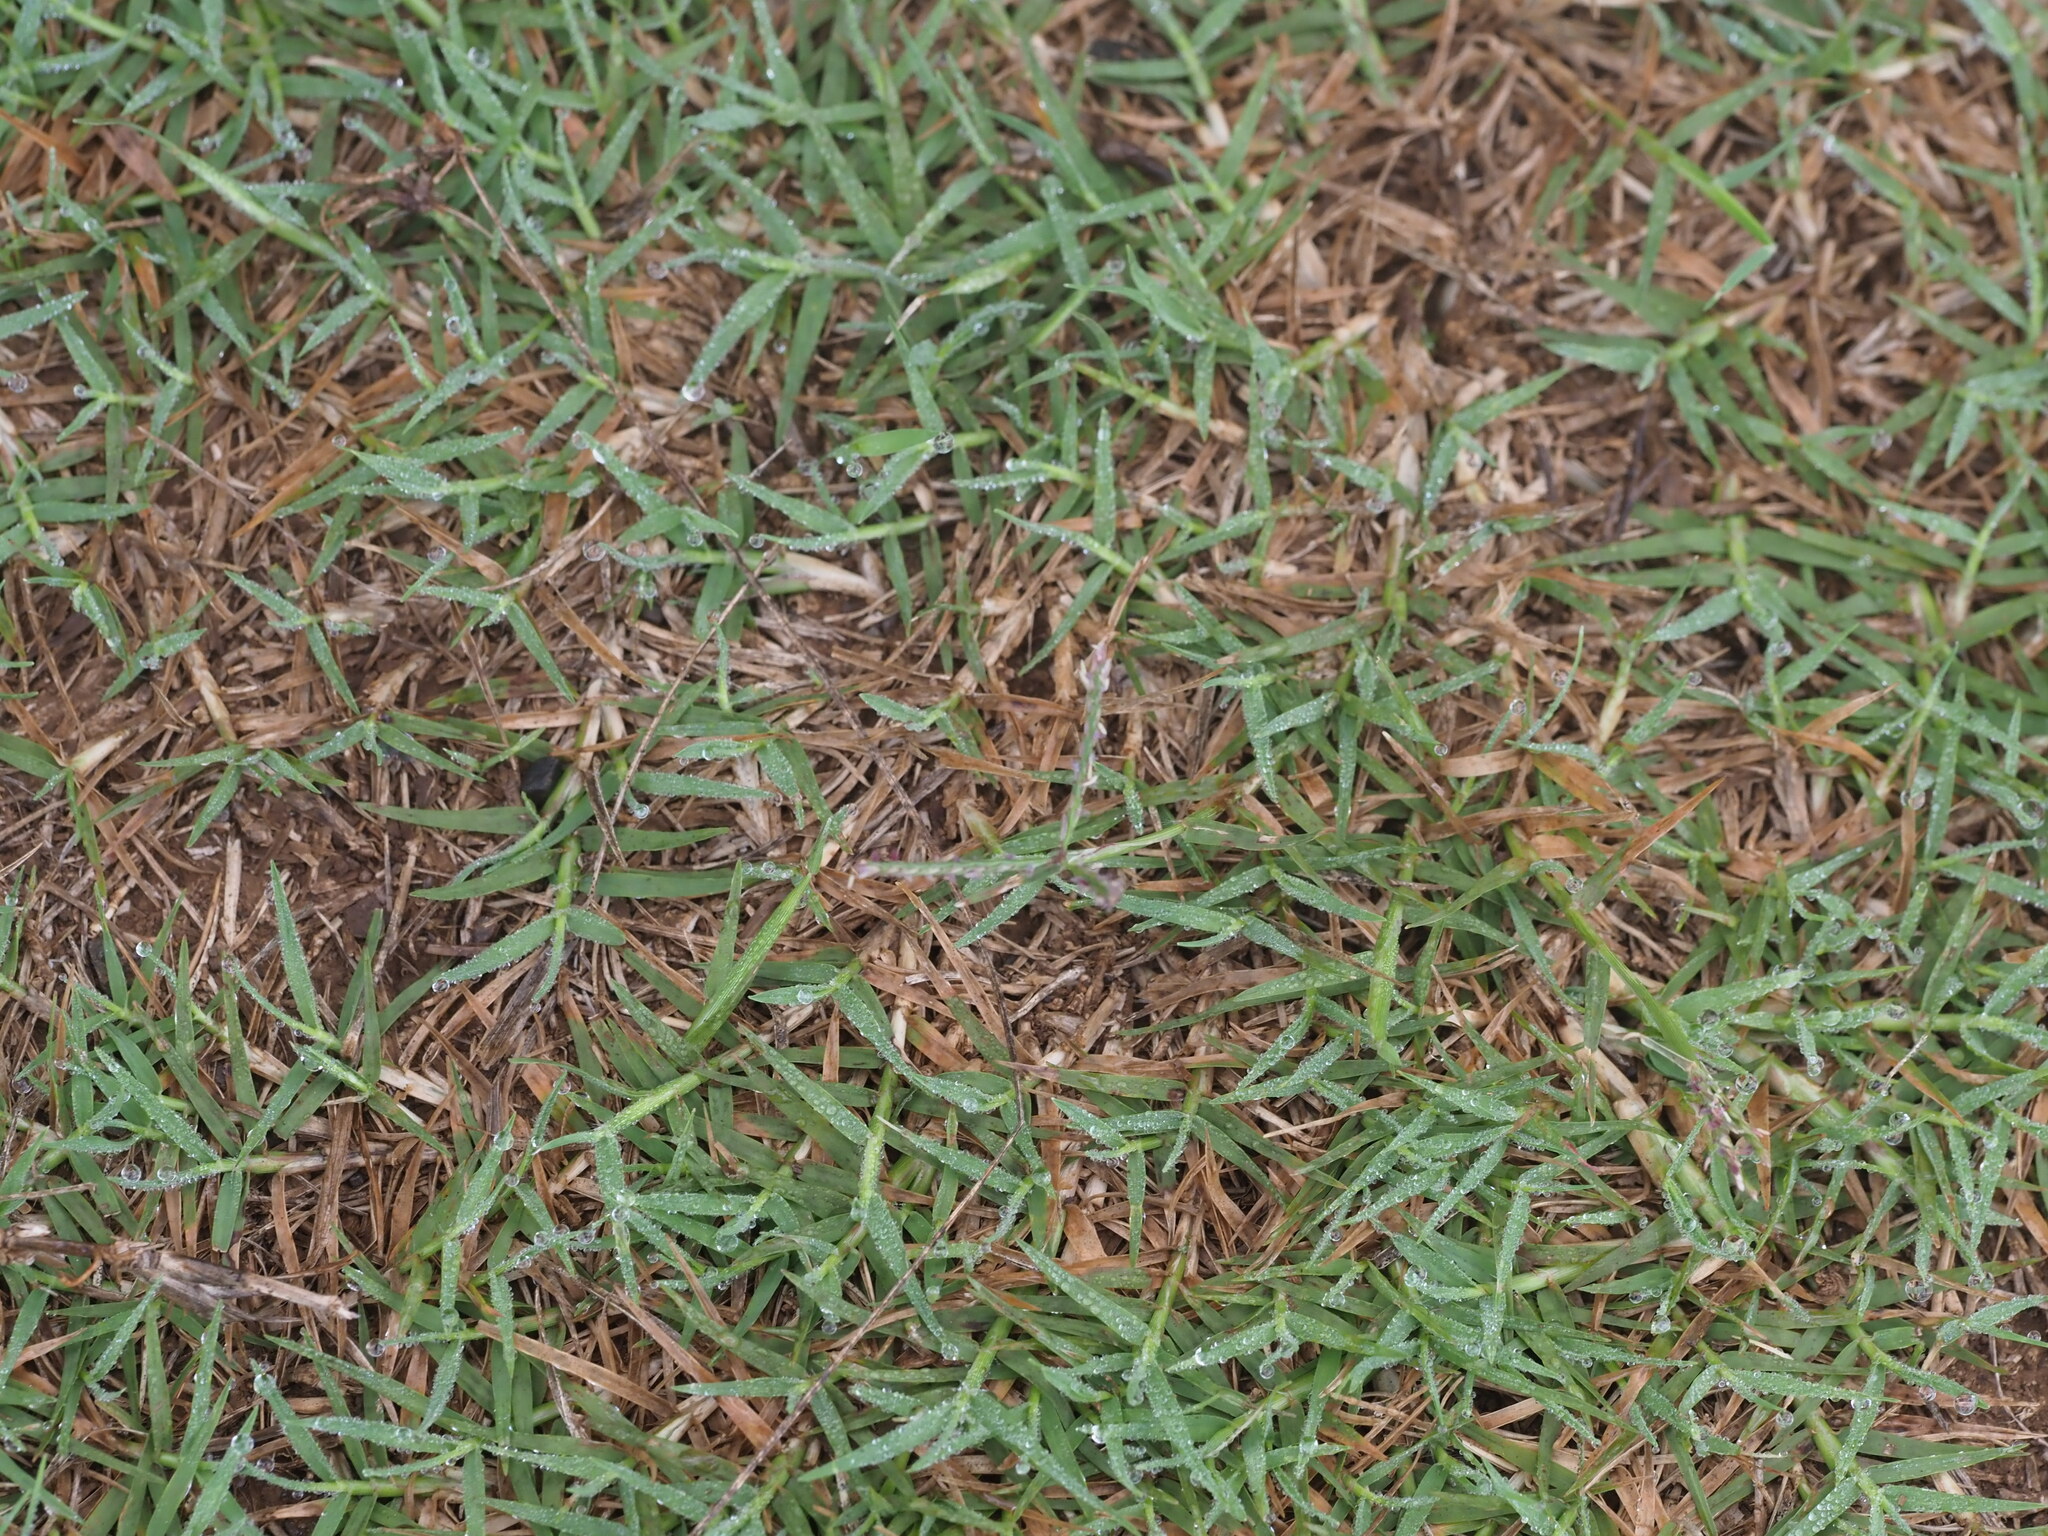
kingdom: Plantae
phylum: Tracheophyta
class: Liliopsida
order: Poales
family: Poaceae
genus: Cynodon
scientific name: Cynodon dactylon
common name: Bermuda grass
